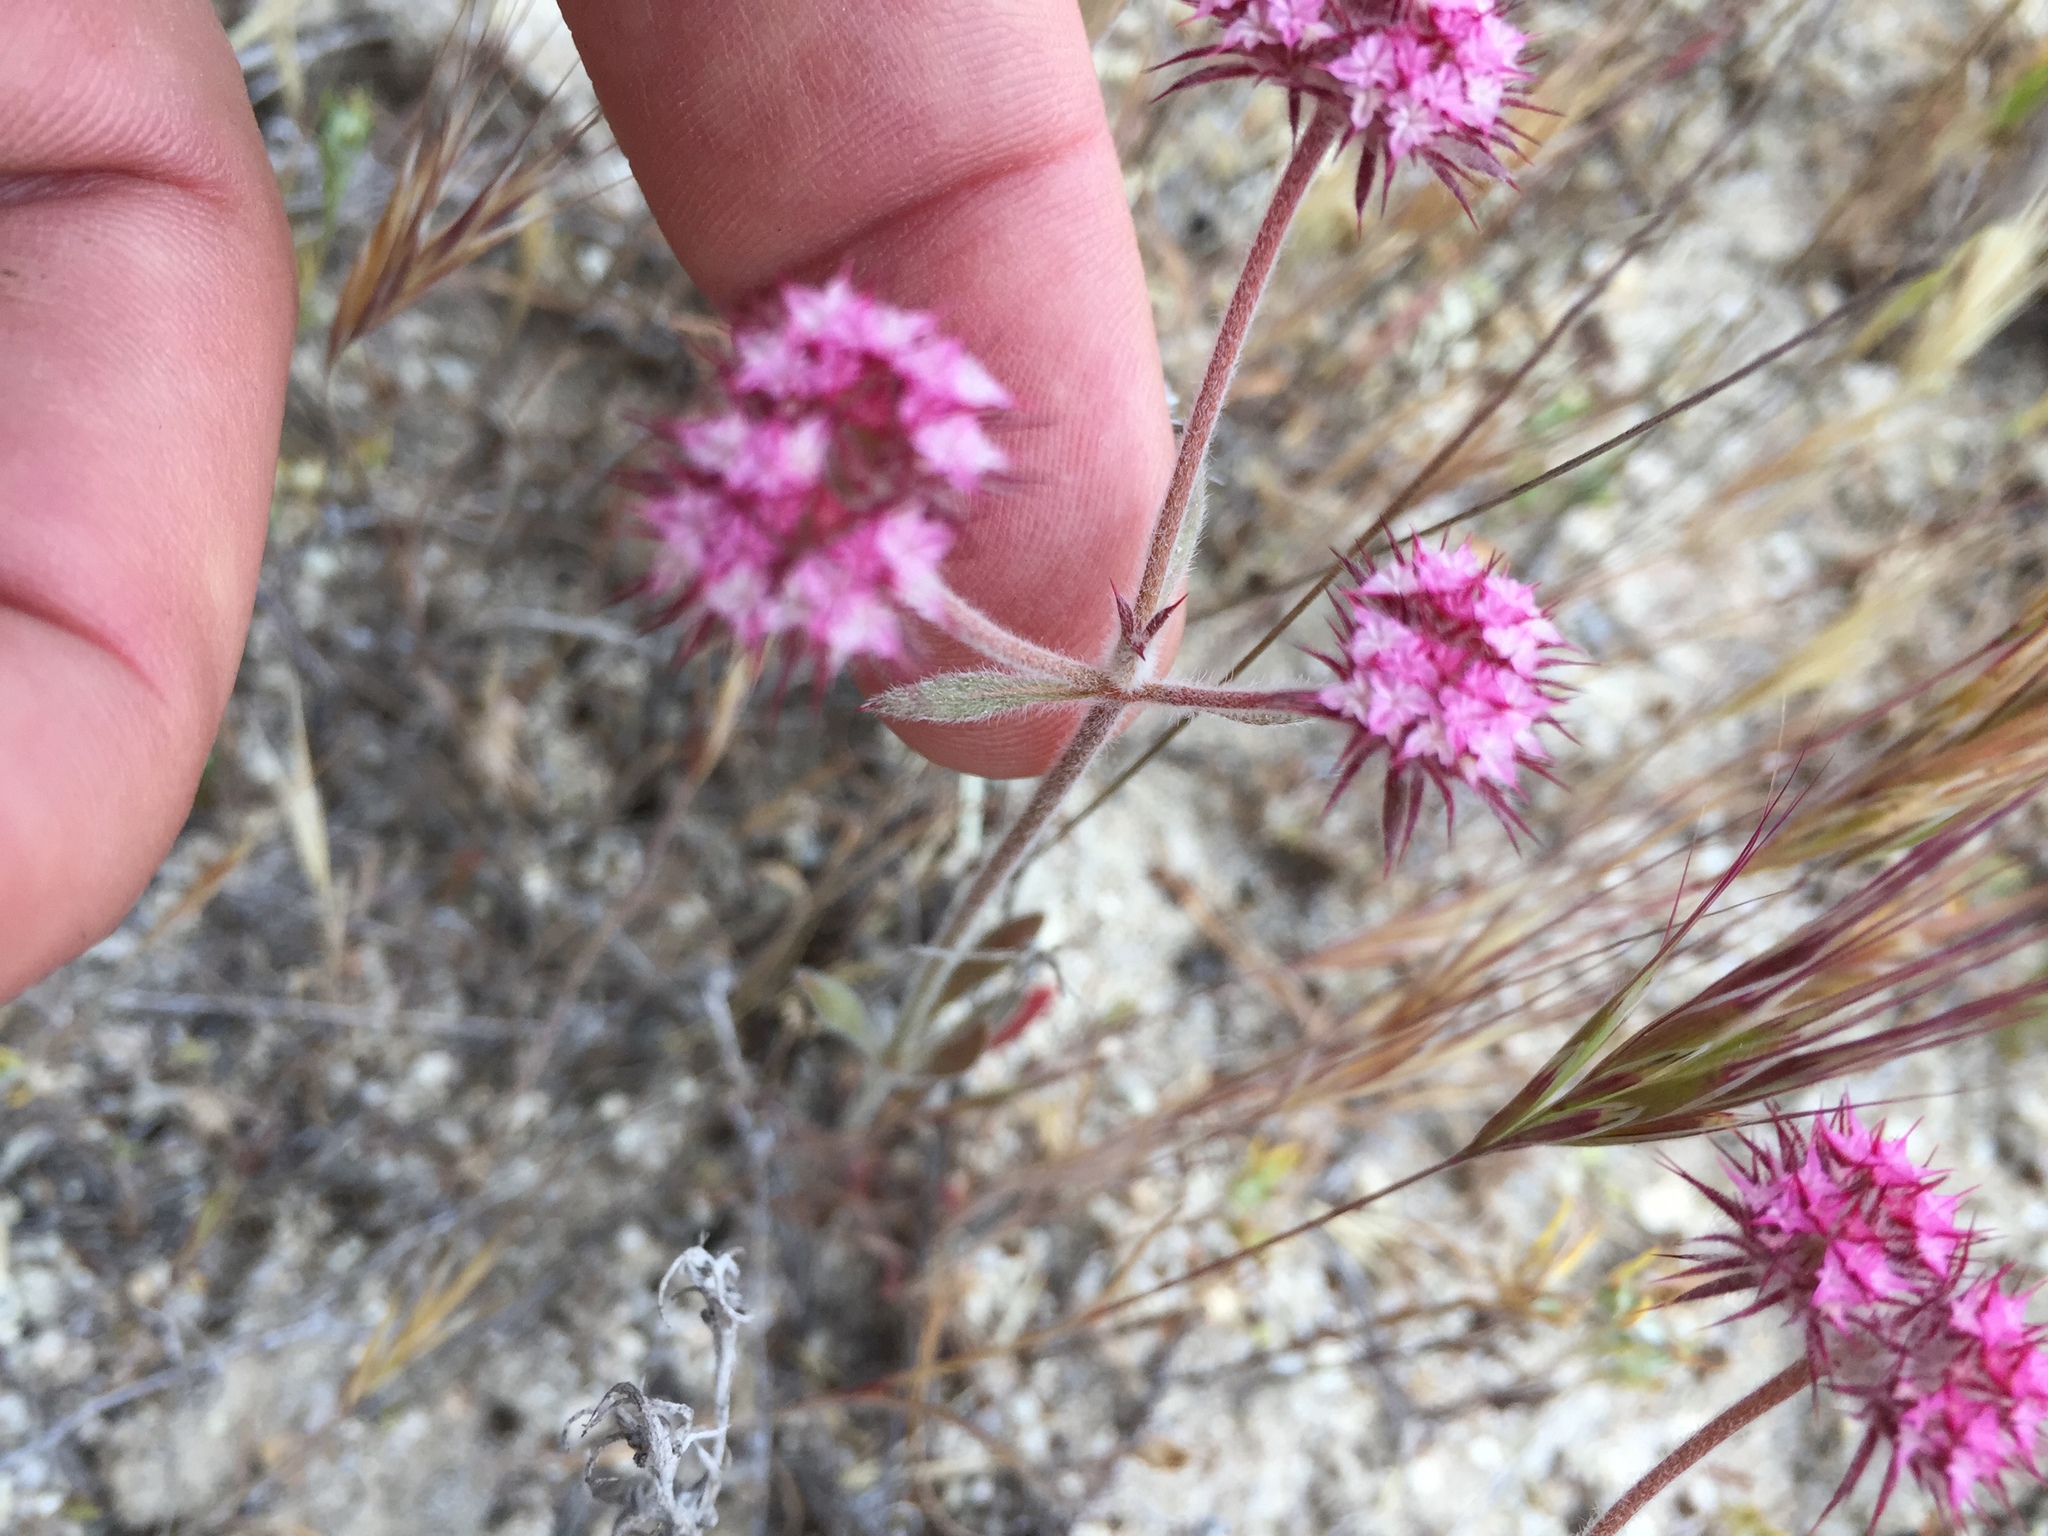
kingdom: Plantae
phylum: Tracheophyta
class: Magnoliopsida
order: Caryophyllales
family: Polygonaceae
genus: Chorizanthe
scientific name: Chorizanthe douglasii
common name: Douglas's spineflower
